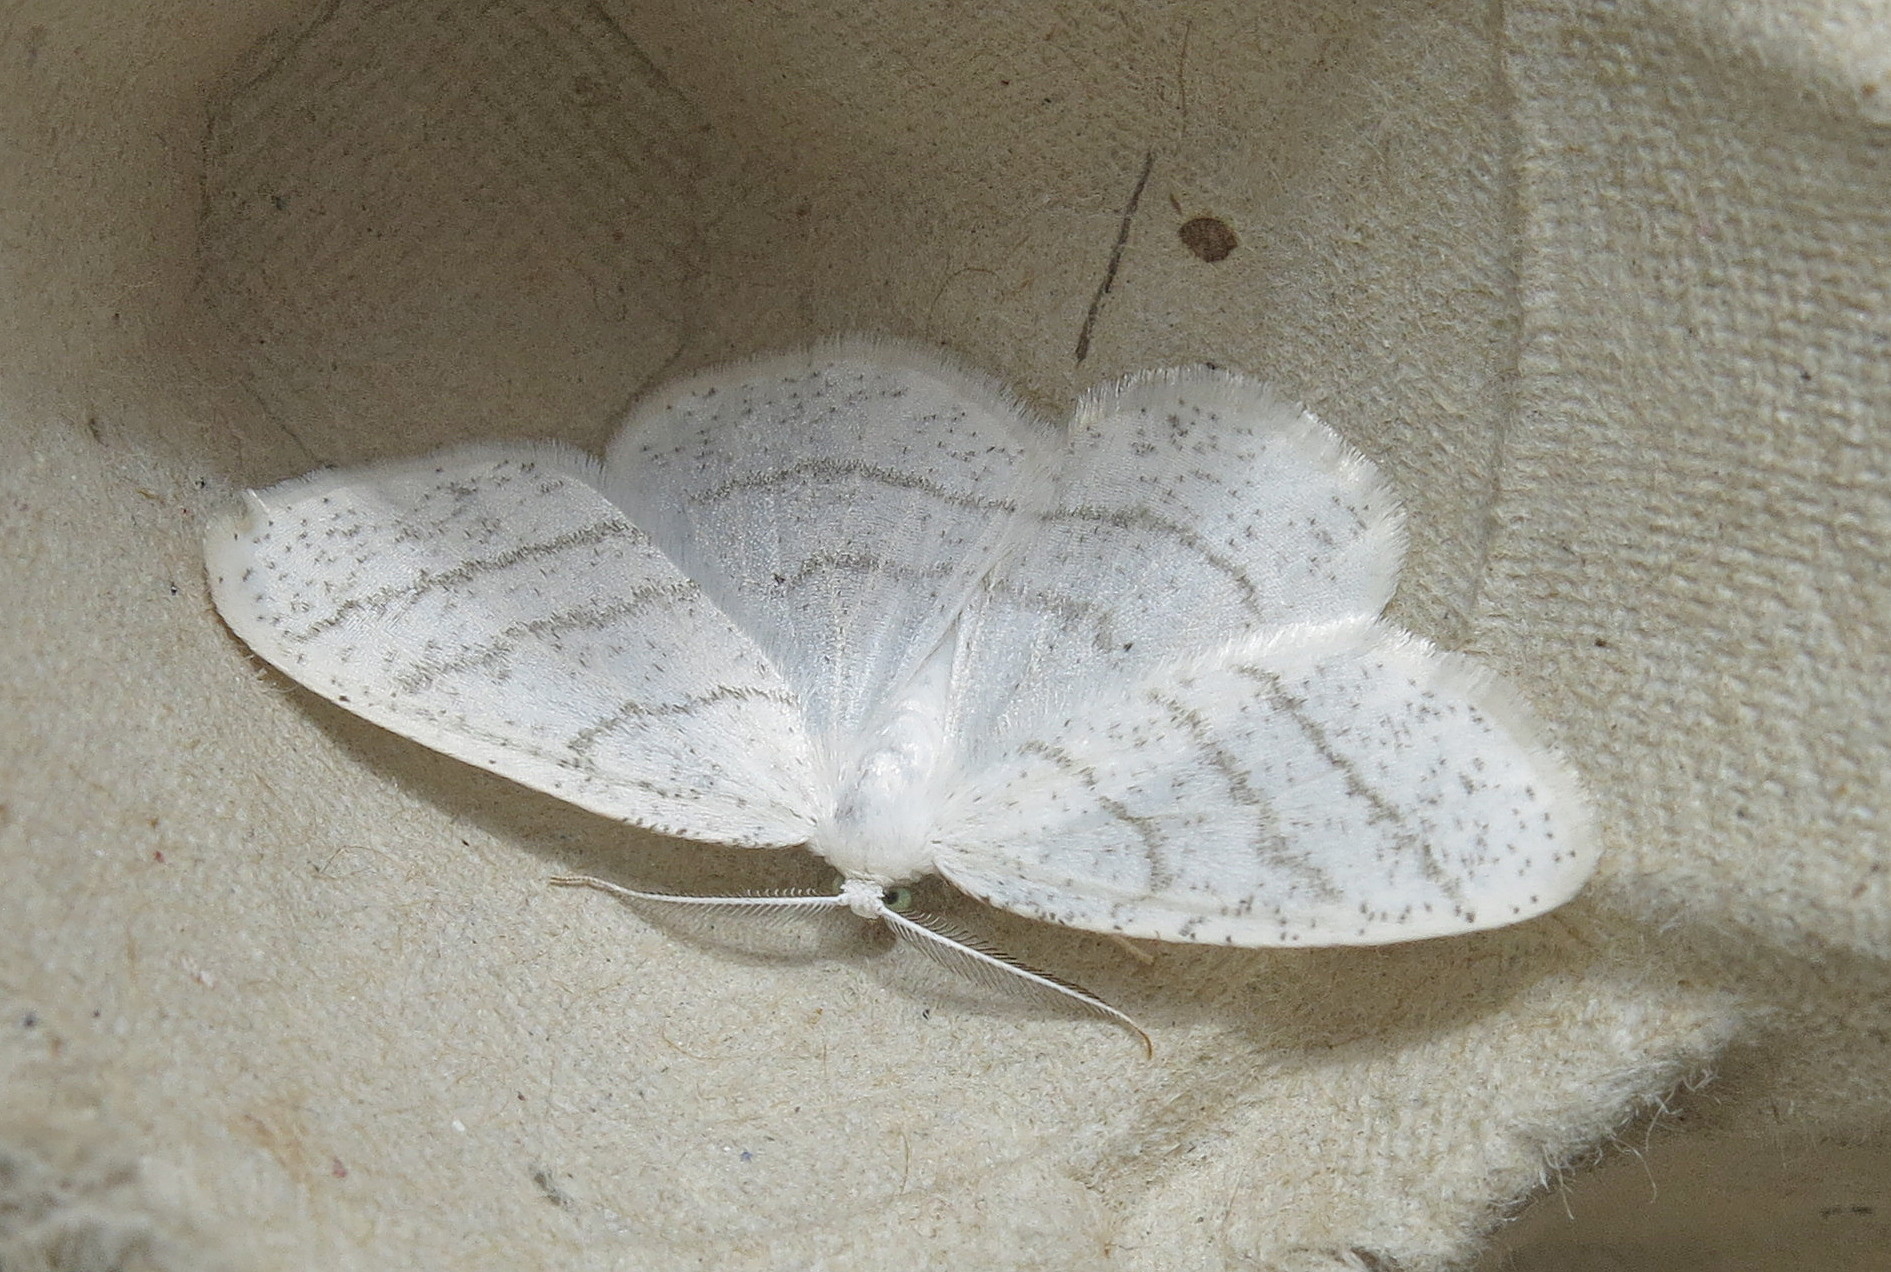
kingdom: Animalia
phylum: Arthropoda
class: Insecta
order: Lepidoptera
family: Geometridae
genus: Cabera
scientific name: Cabera pusaria
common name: Common white wave
